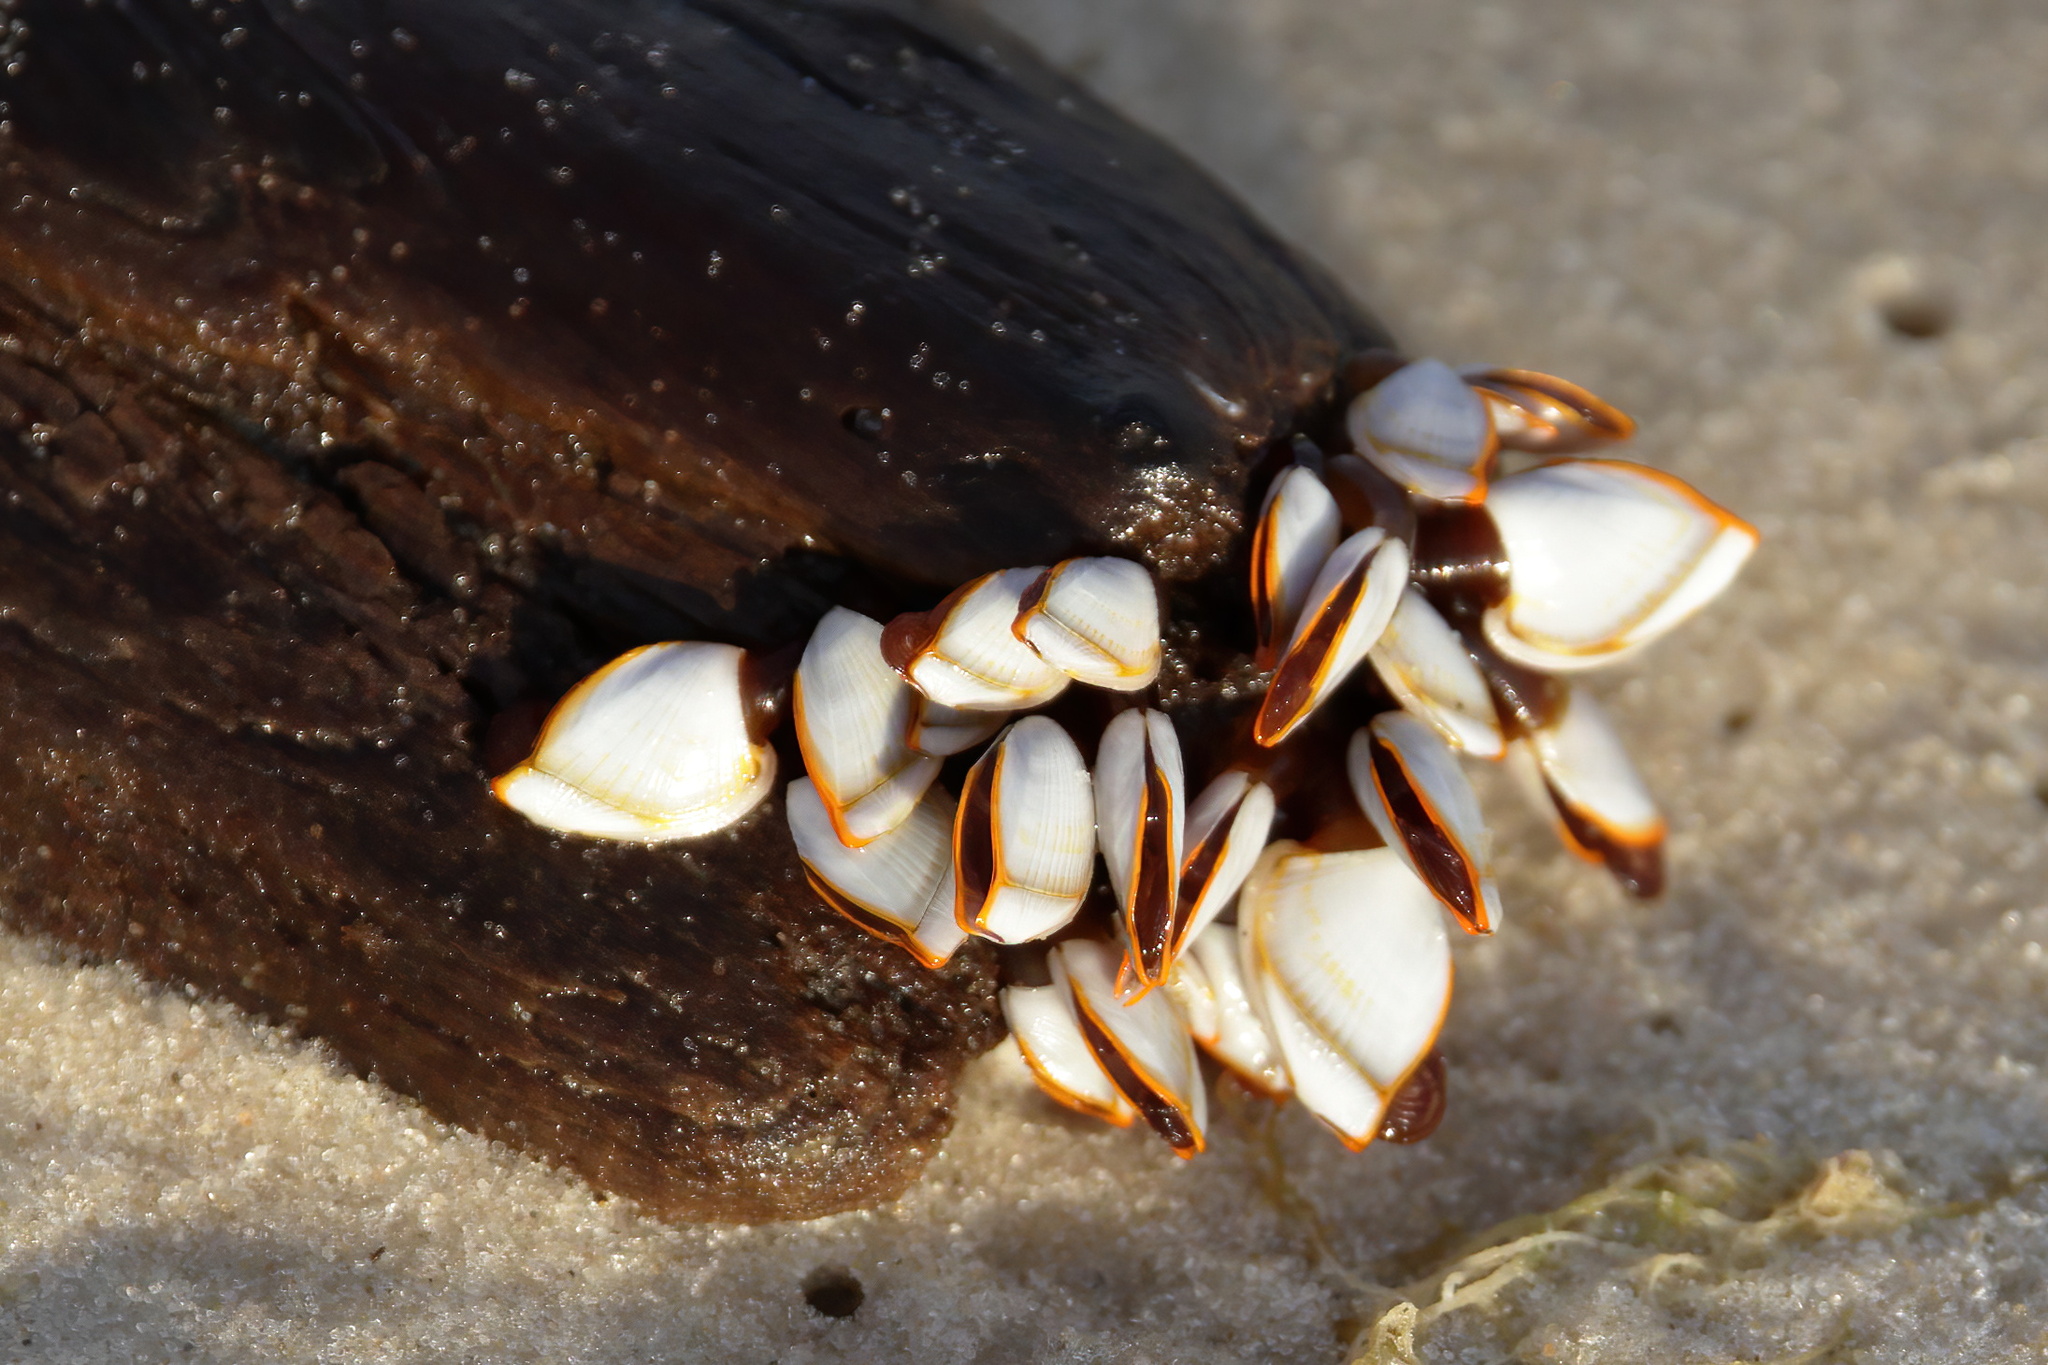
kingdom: Animalia
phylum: Arthropoda
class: Maxillopoda
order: Pedunculata
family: Lepadidae
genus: Lepas
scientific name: Lepas anserifera
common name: Goose barnacle
